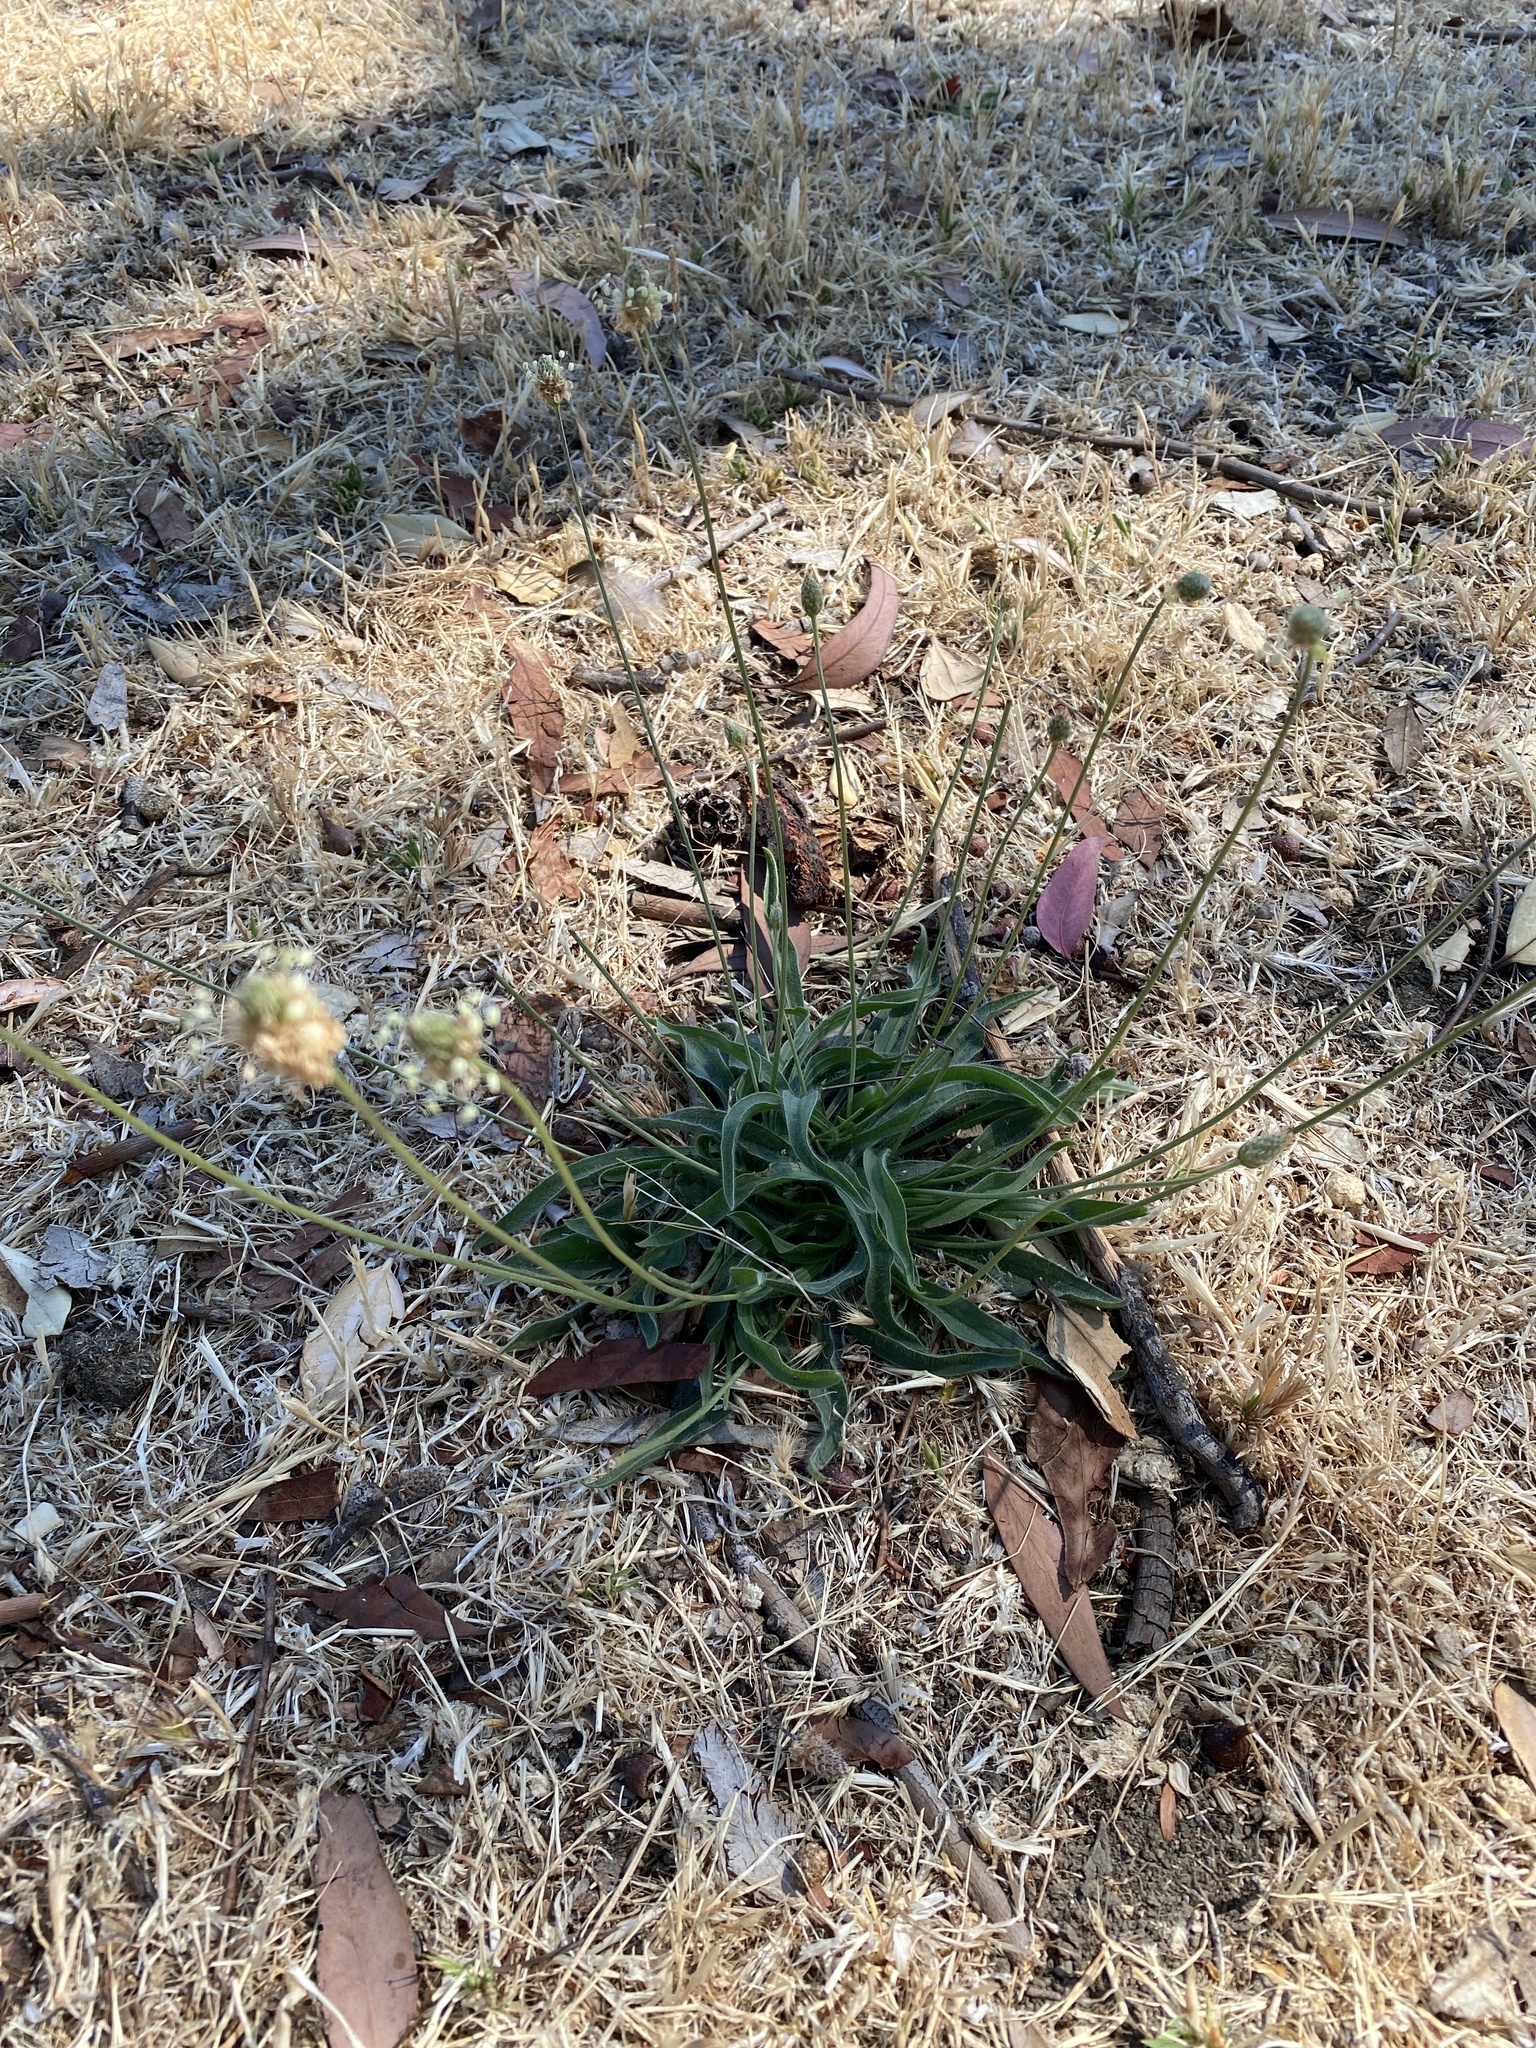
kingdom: Plantae
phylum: Tracheophyta
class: Magnoliopsida
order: Lamiales
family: Plantaginaceae
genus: Plantago
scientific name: Plantago lanceolata
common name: Ribwort plantain
